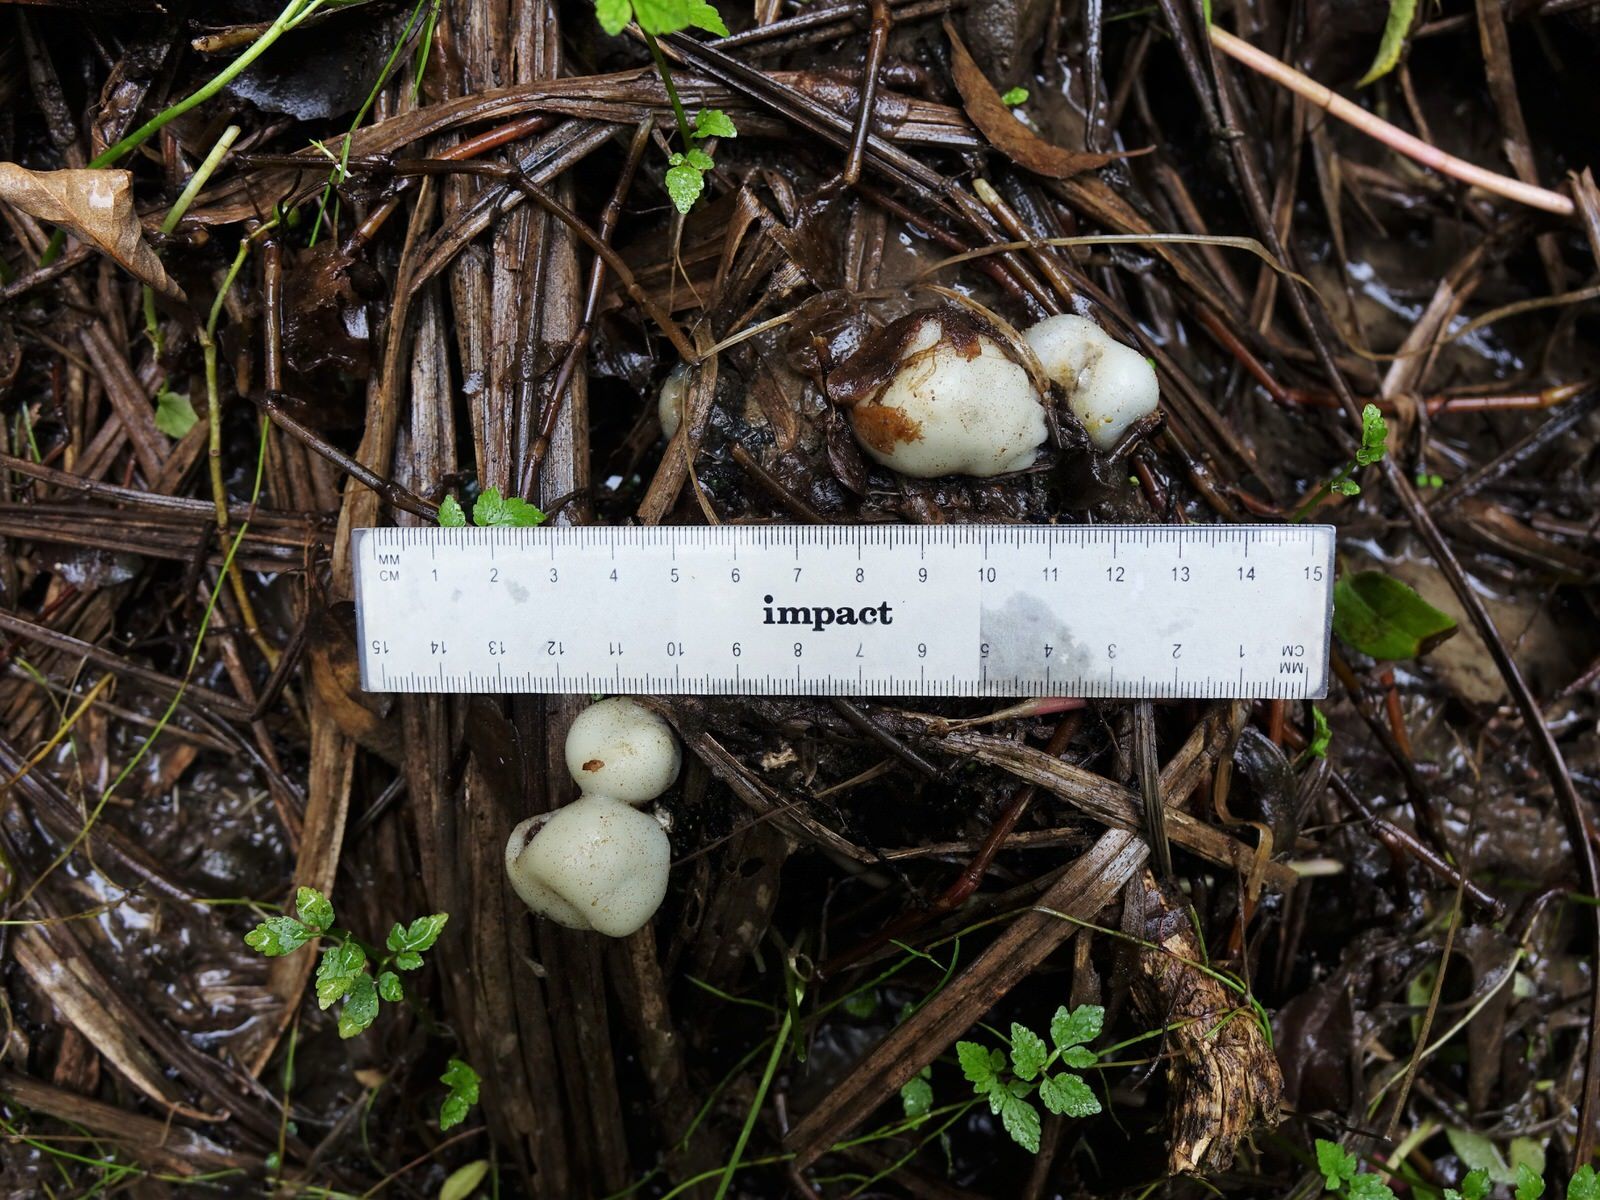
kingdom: Fungi
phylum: Basidiomycota
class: Agaricomycetes
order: Agaricales
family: Hymenogastraceae
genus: Psilocybe
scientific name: Psilocybe weraroa
